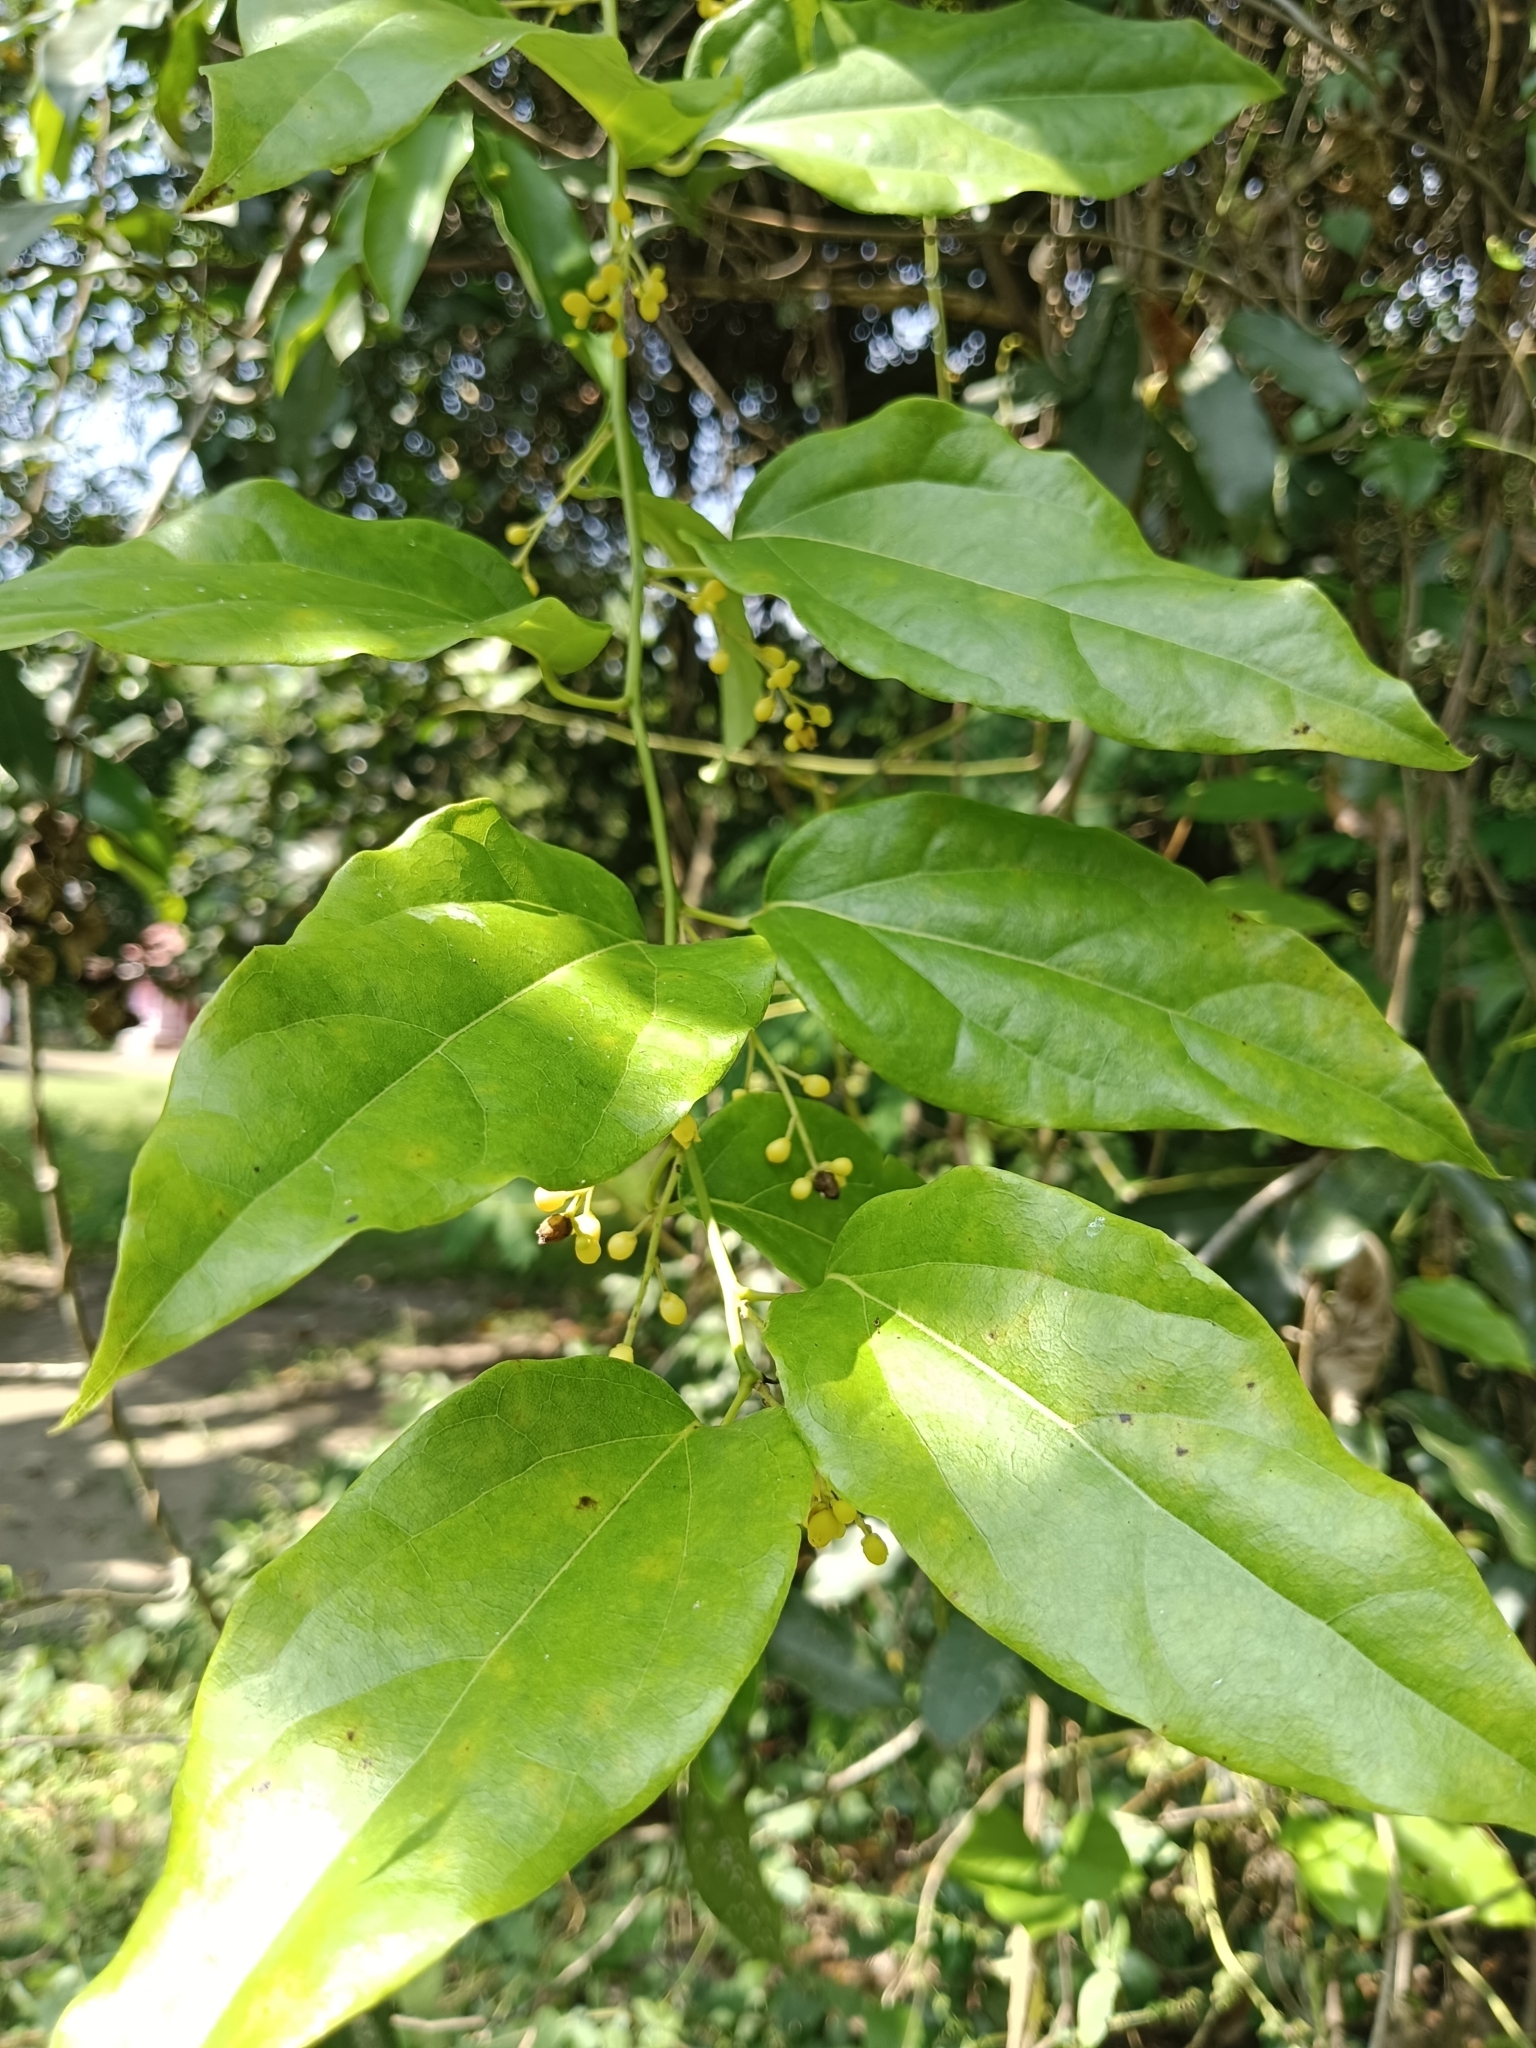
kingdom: Plantae
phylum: Tracheophyta
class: Magnoliopsida
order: Ranunculales
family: Menispermaceae
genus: Tiliacora
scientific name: Tiliacora acuminata
